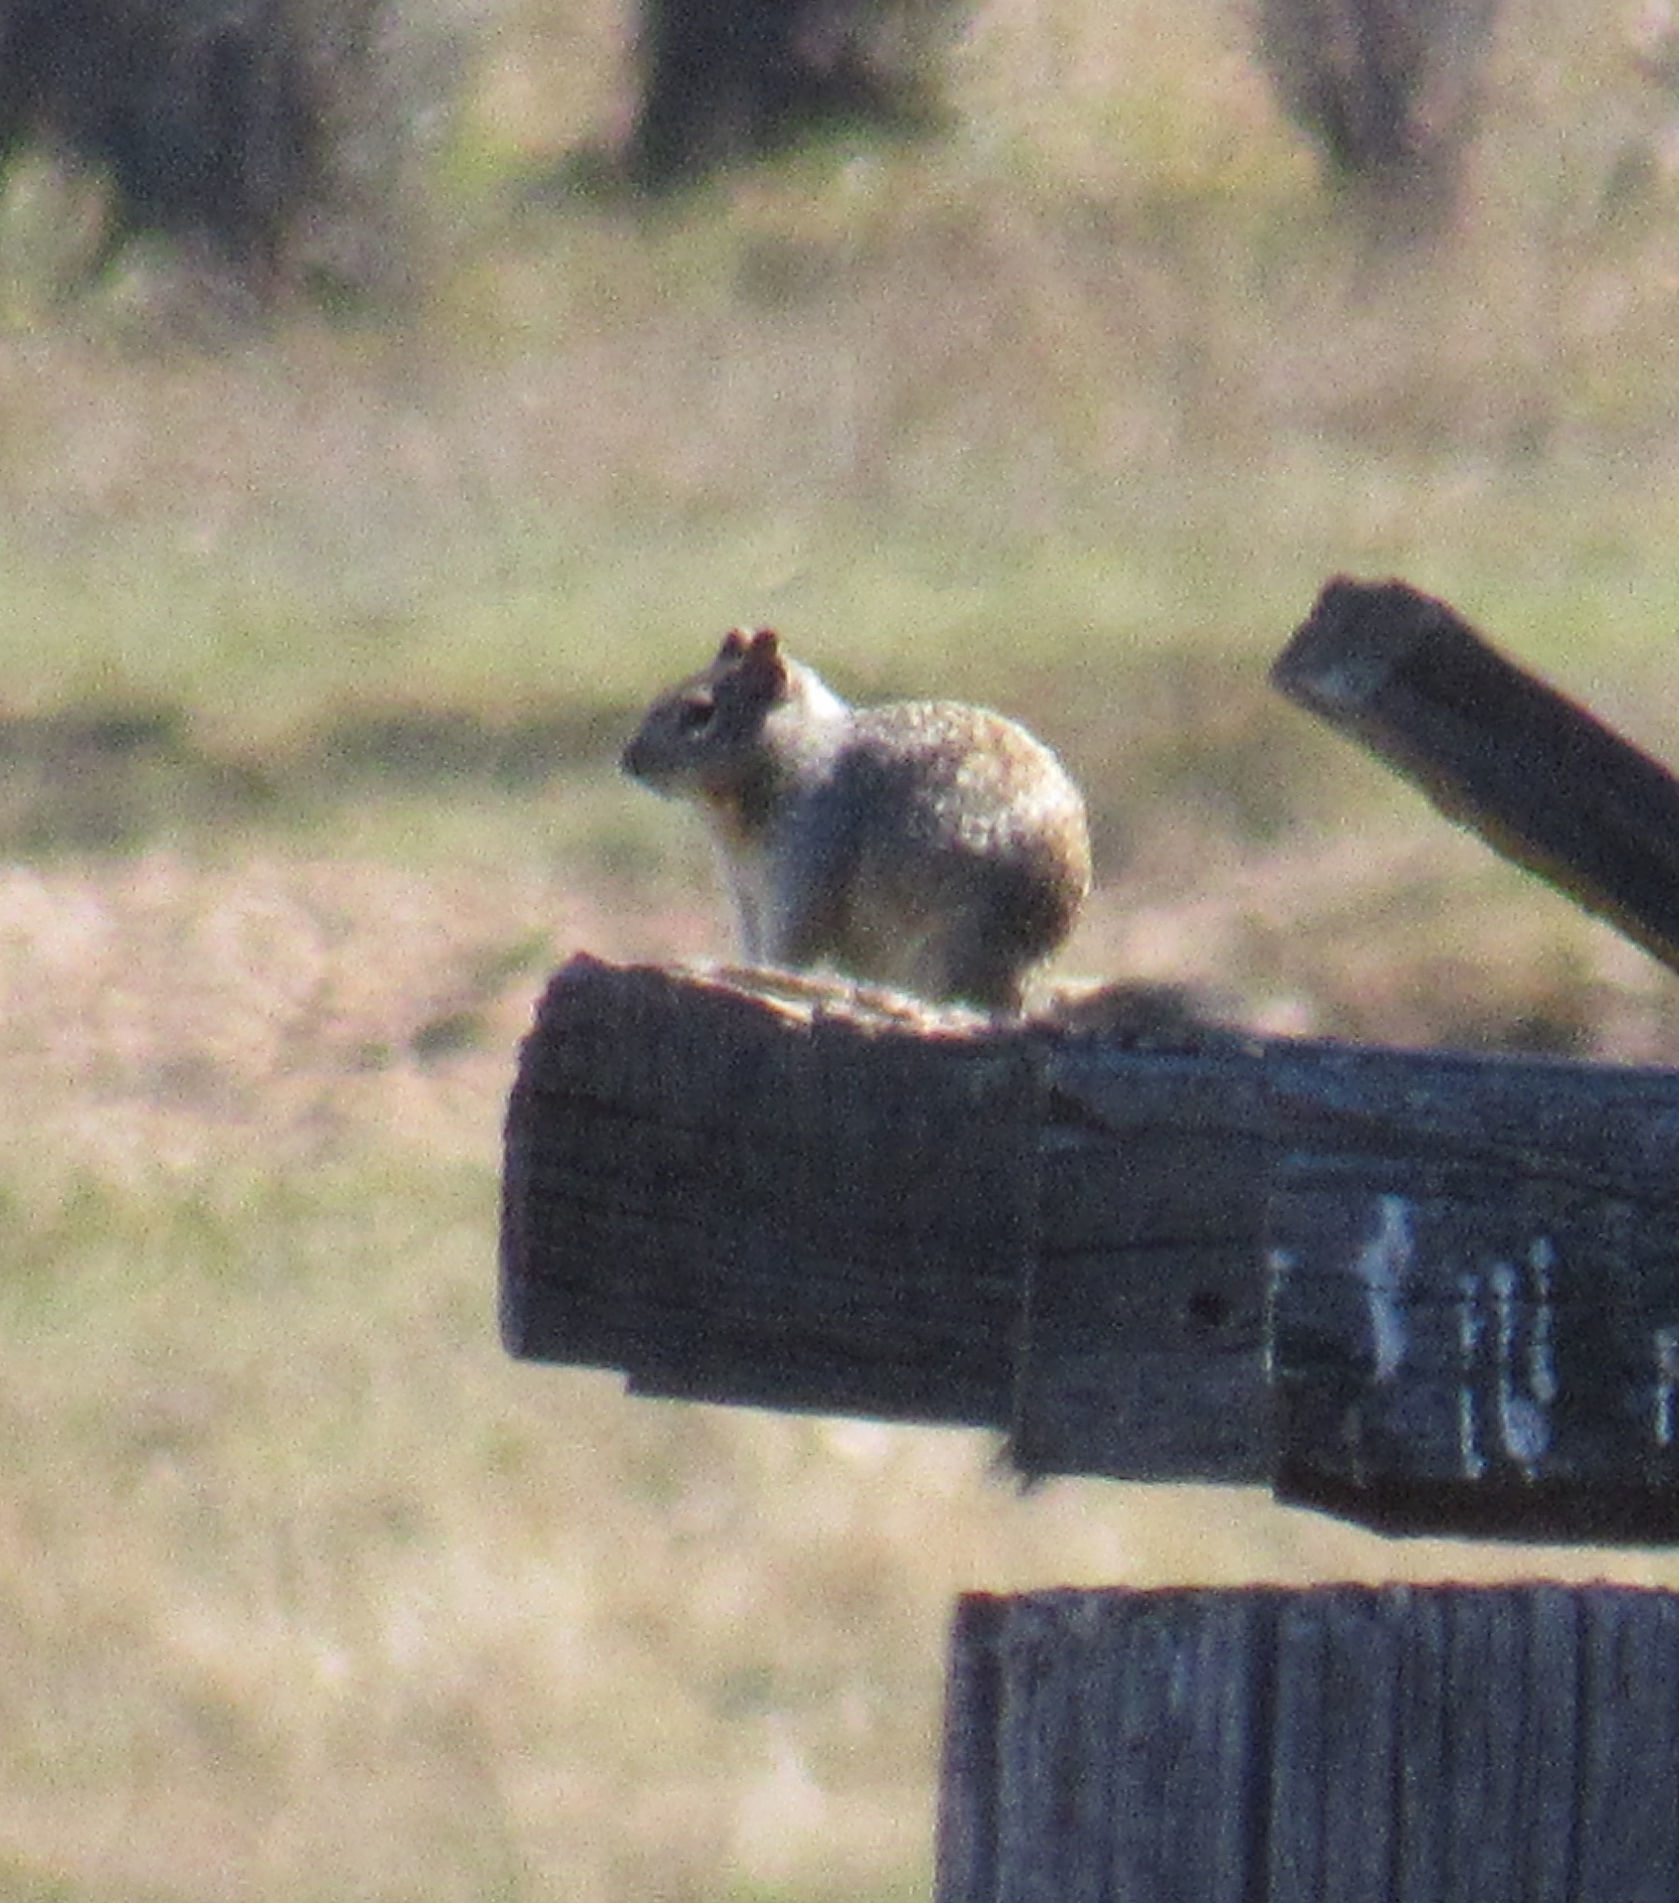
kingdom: Animalia
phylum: Chordata
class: Mammalia
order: Rodentia
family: Sciuridae
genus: Otospermophilus
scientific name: Otospermophilus variegatus
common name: Rock squirrel
